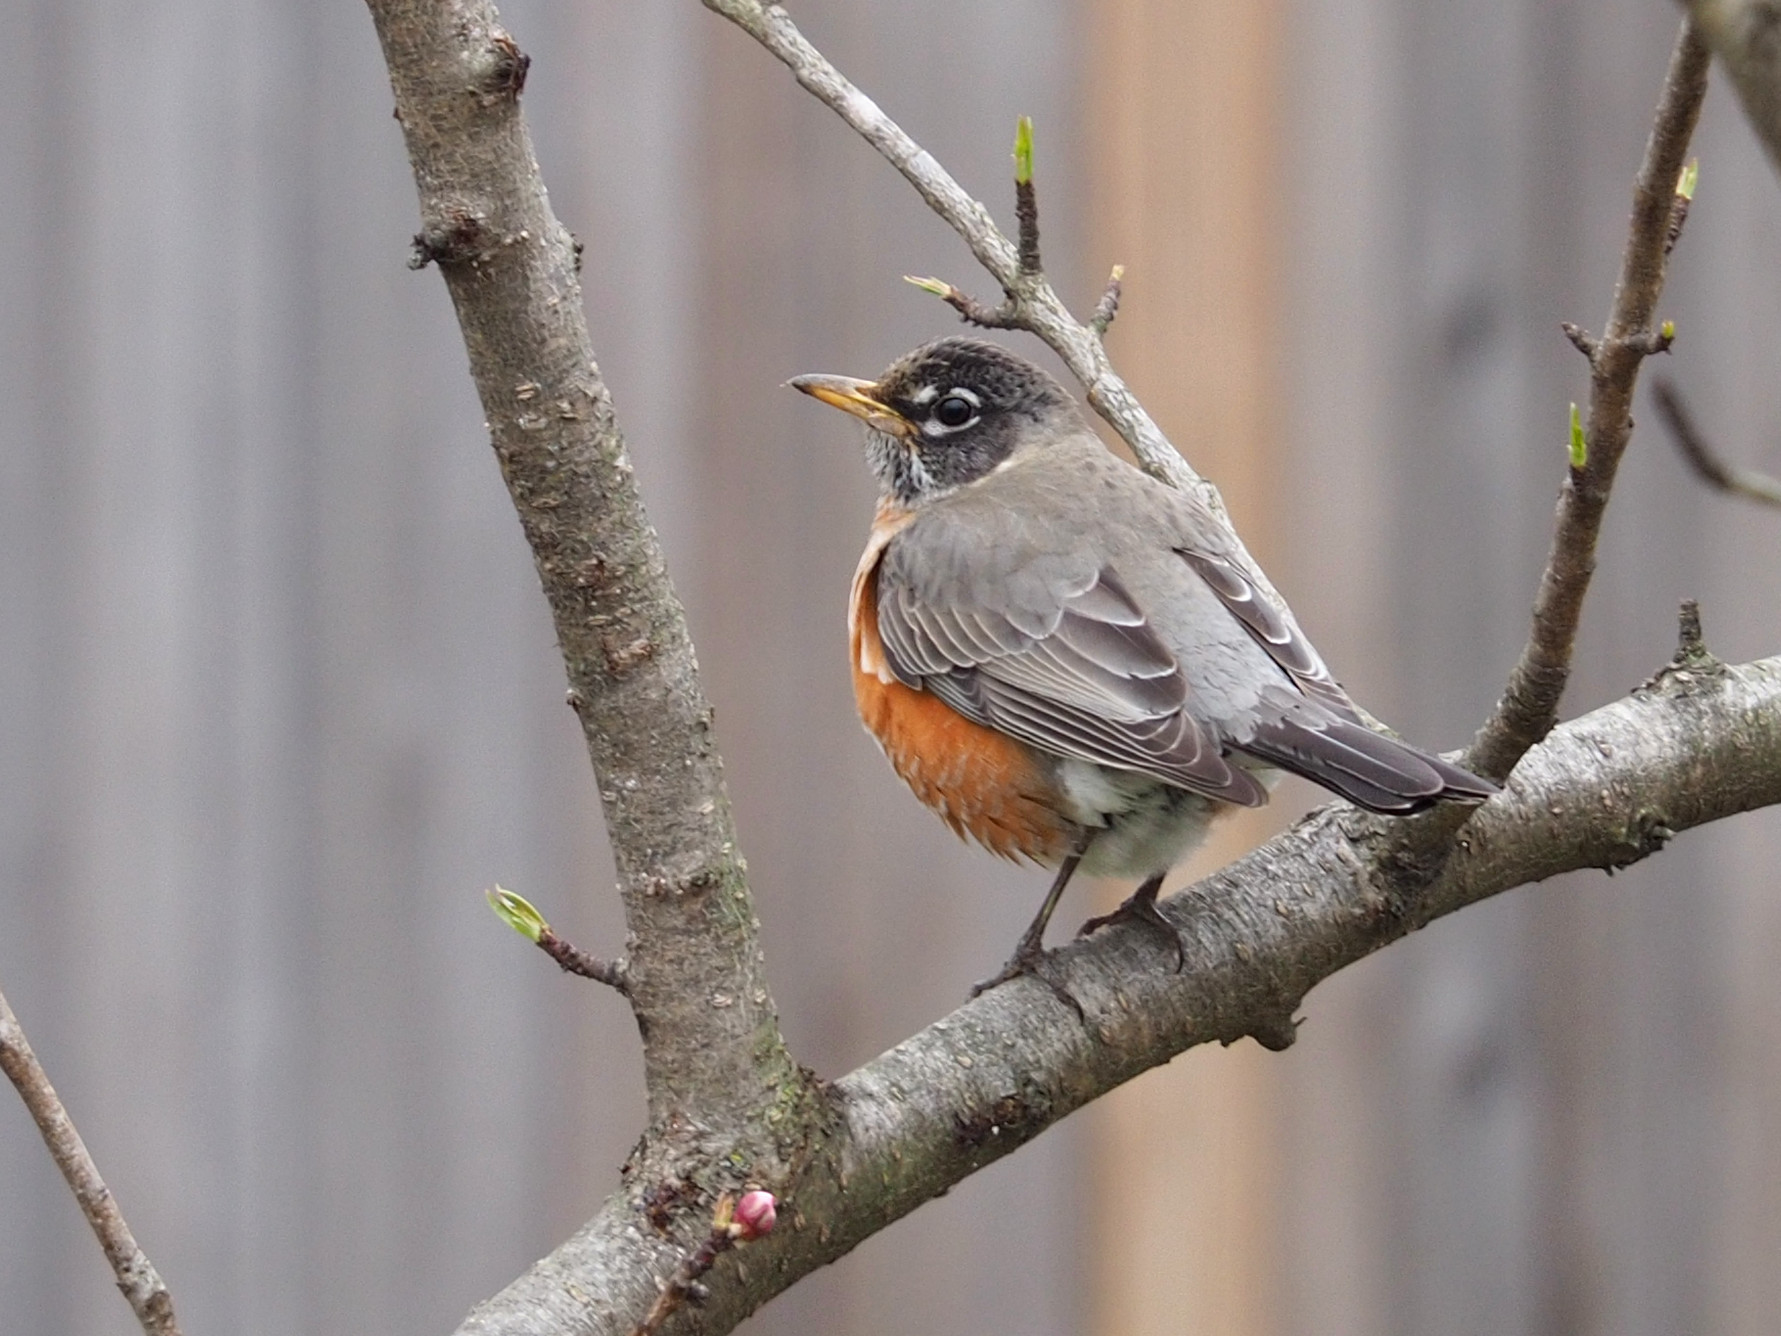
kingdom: Animalia
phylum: Chordata
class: Aves
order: Passeriformes
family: Turdidae
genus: Turdus
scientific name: Turdus migratorius
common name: American robin
